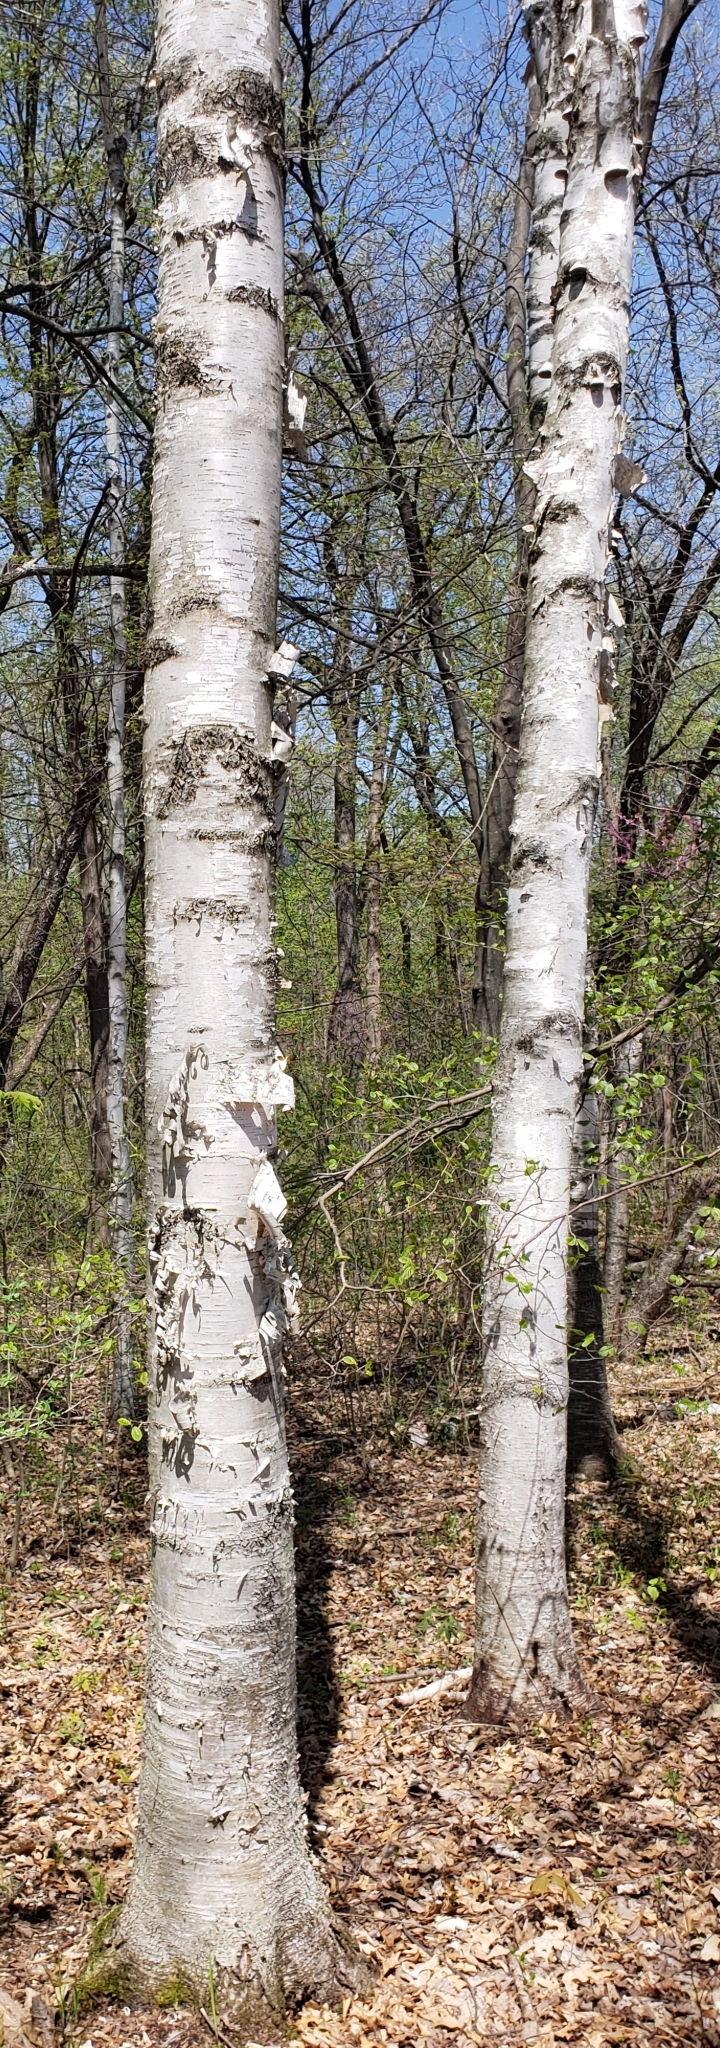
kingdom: Plantae
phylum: Tracheophyta
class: Magnoliopsida
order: Fagales
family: Betulaceae
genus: Betula
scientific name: Betula papyrifera
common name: Paper birch
